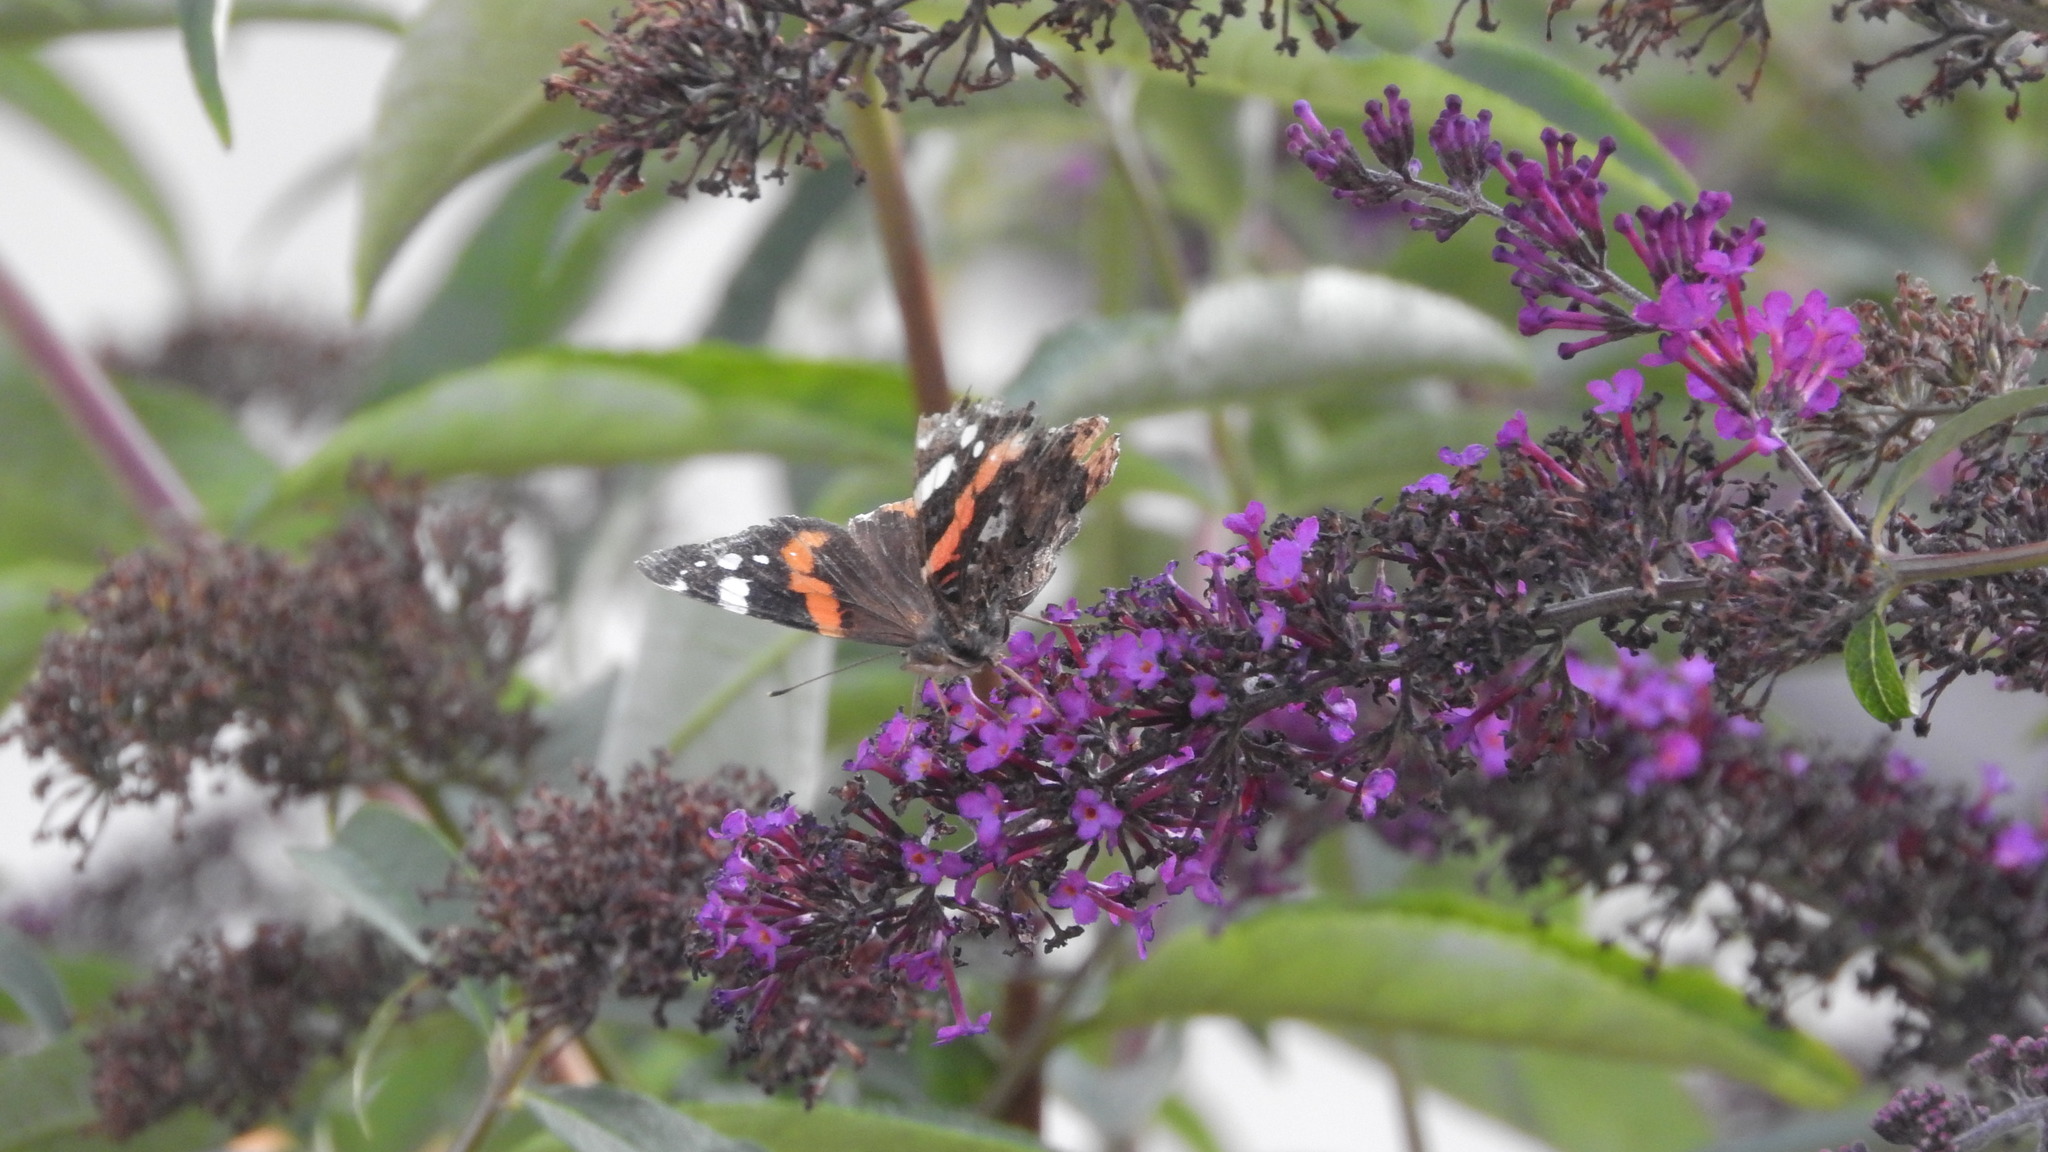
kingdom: Animalia
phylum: Arthropoda
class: Insecta
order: Lepidoptera
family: Nymphalidae
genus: Vanessa
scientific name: Vanessa atalanta
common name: Red admiral
